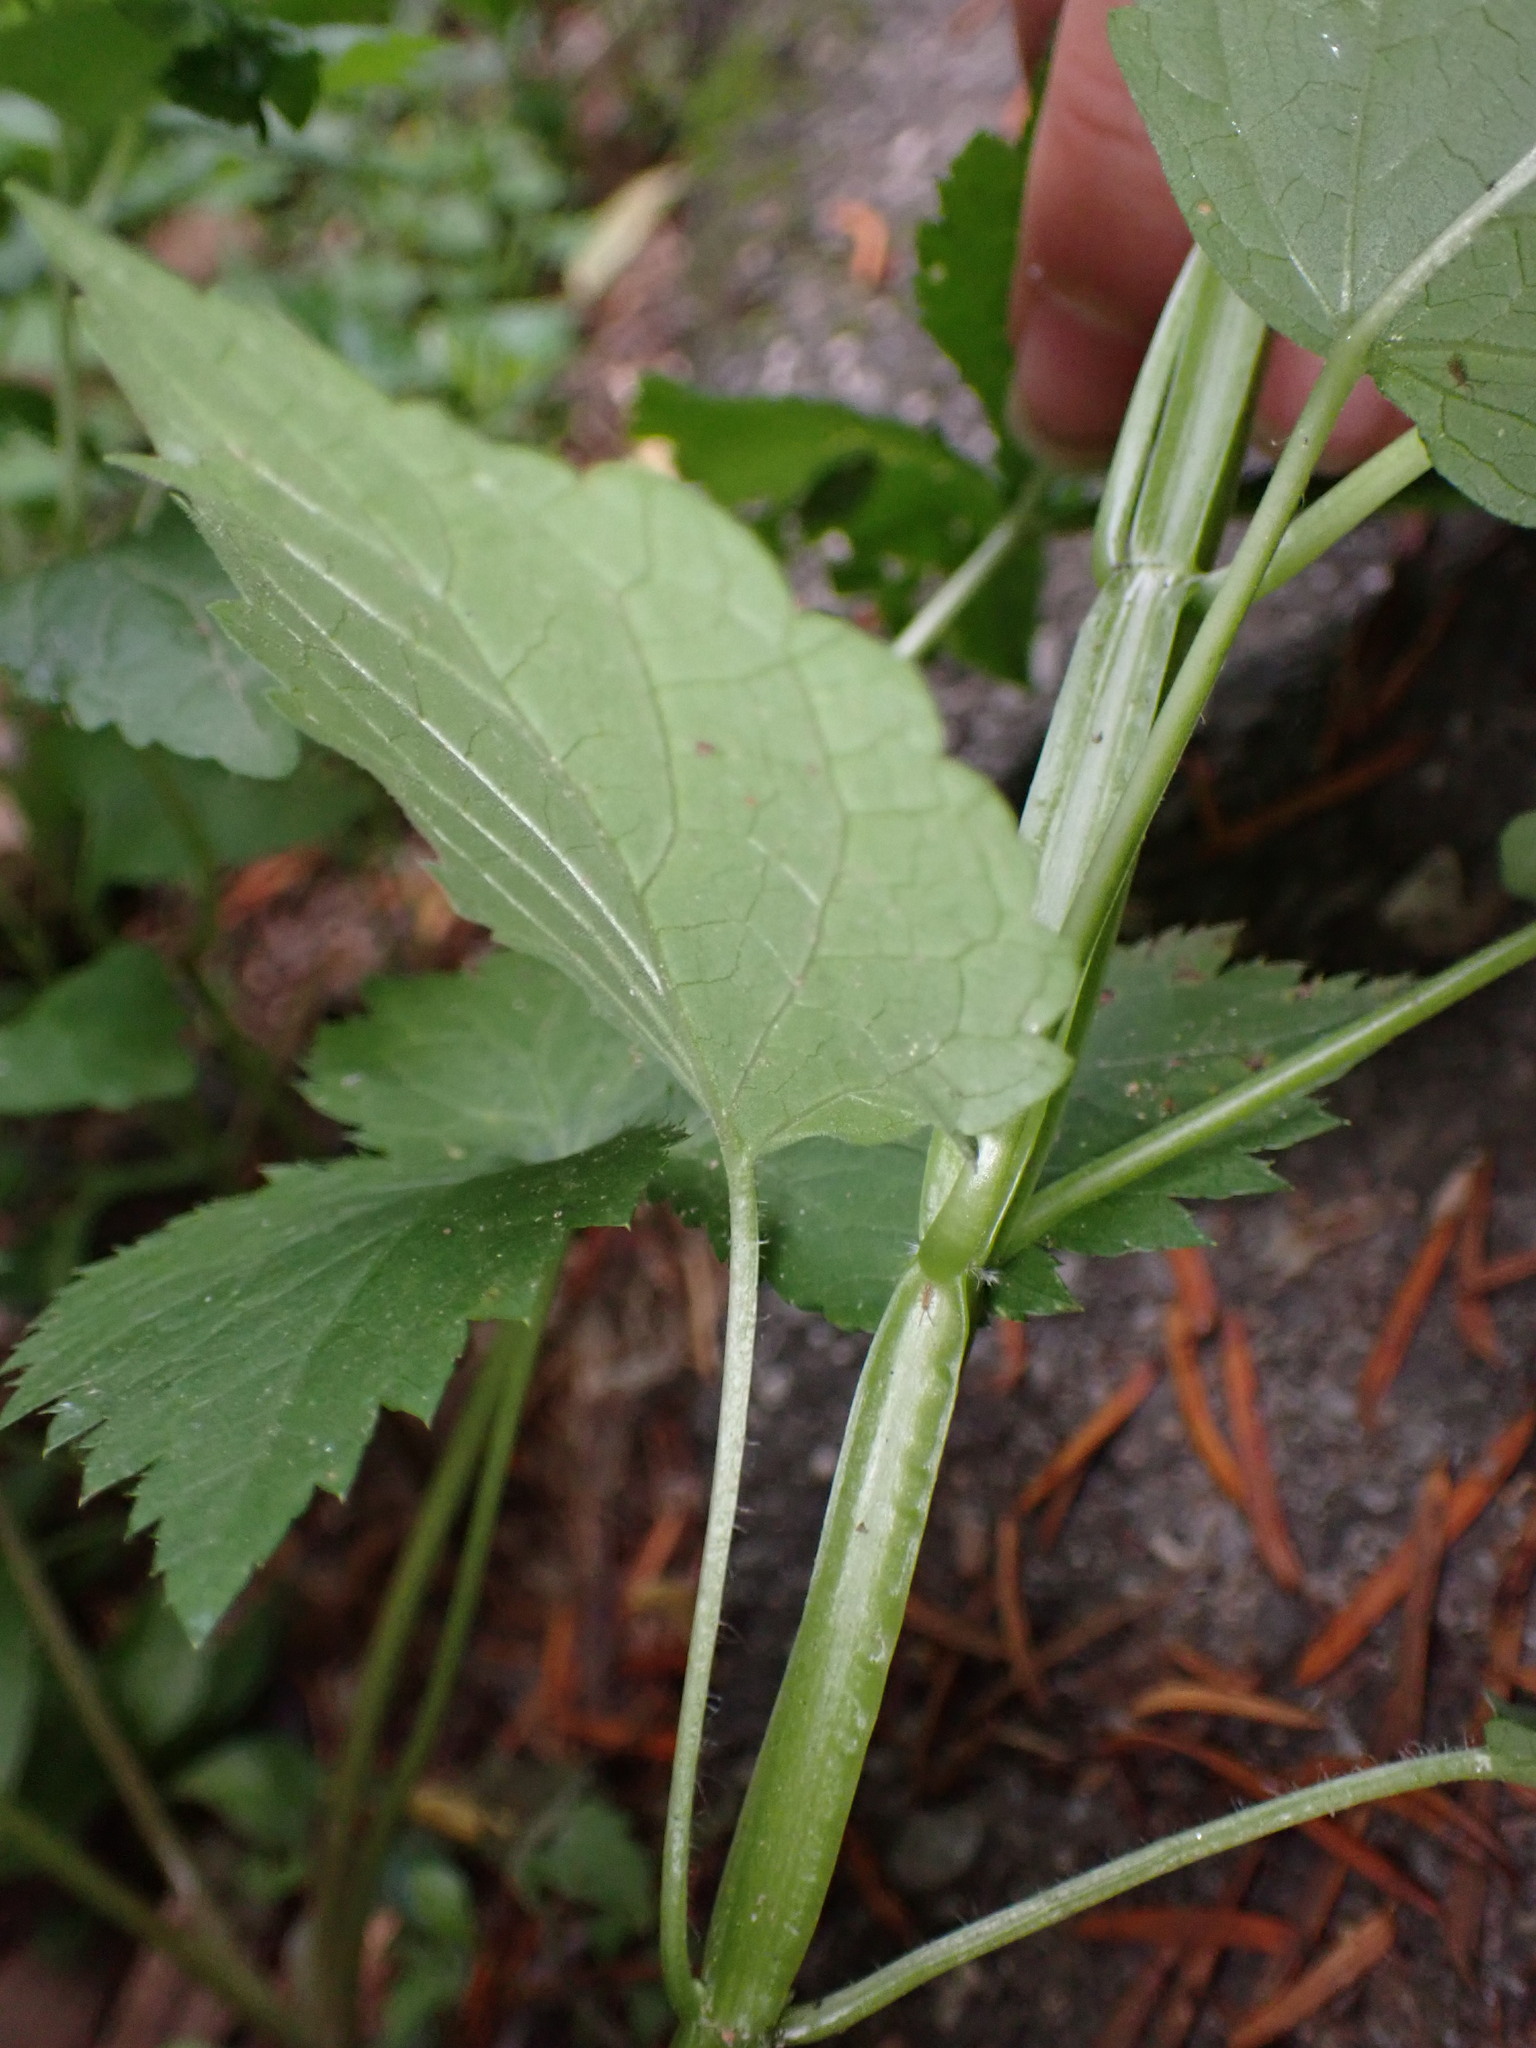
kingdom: Plantae
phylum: Tracheophyta
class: Magnoliopsida
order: Lamiales
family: Lamiaceae
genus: Agastache
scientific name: Agastache nepetoides
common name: Catnip giant hyssop
